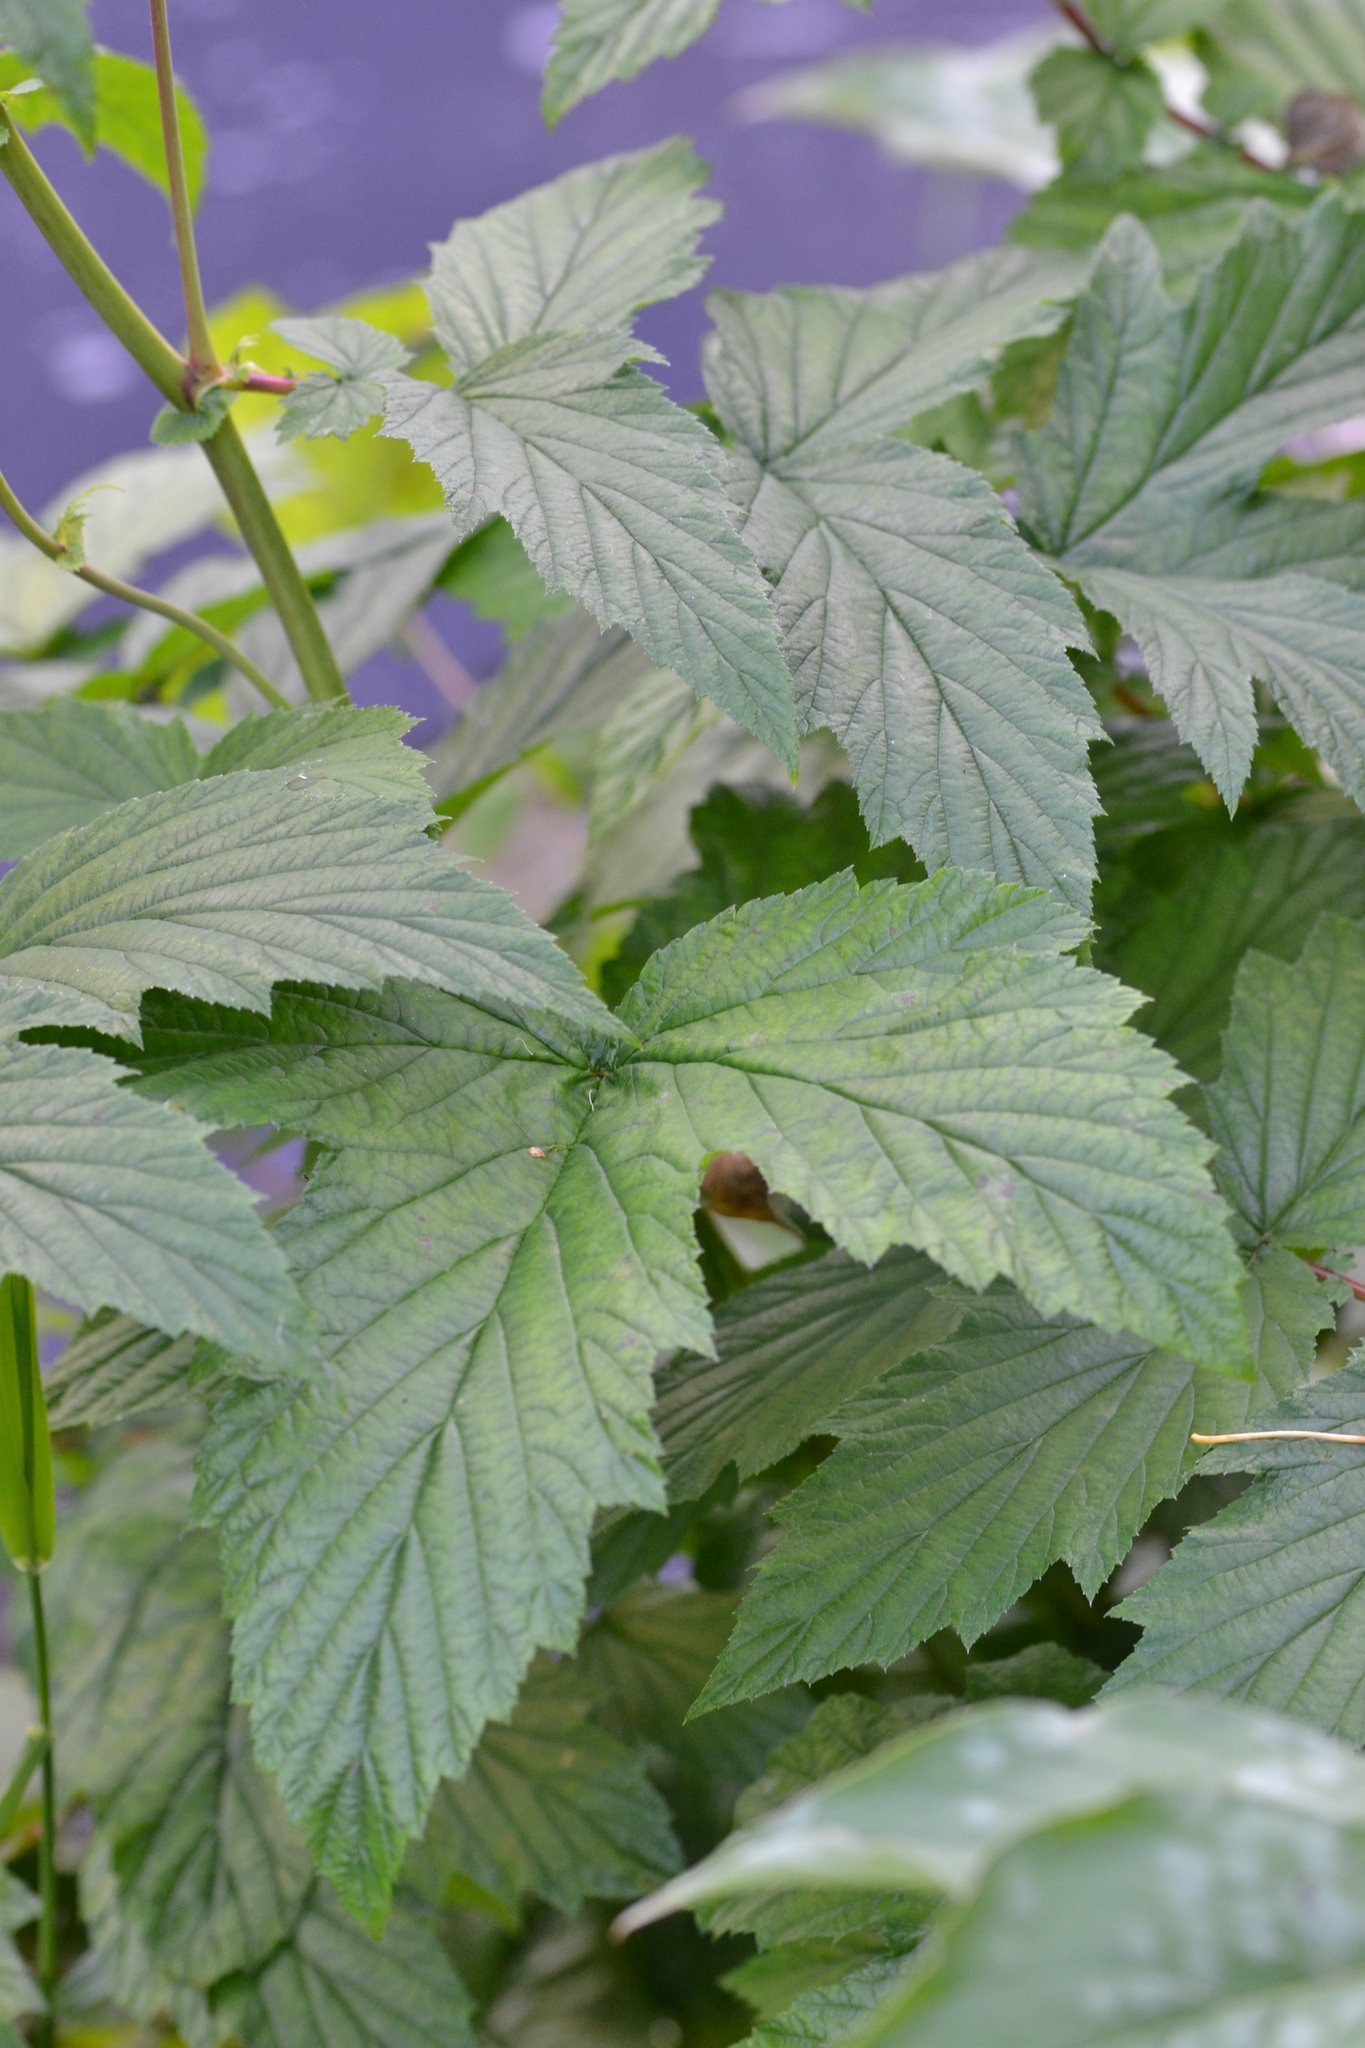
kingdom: Plantae
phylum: Tracheophyta
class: Magnoliopsida
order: Rosales
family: Rosaceae
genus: Filipendula
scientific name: Filipendula ulmaria
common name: Meadowsweet
